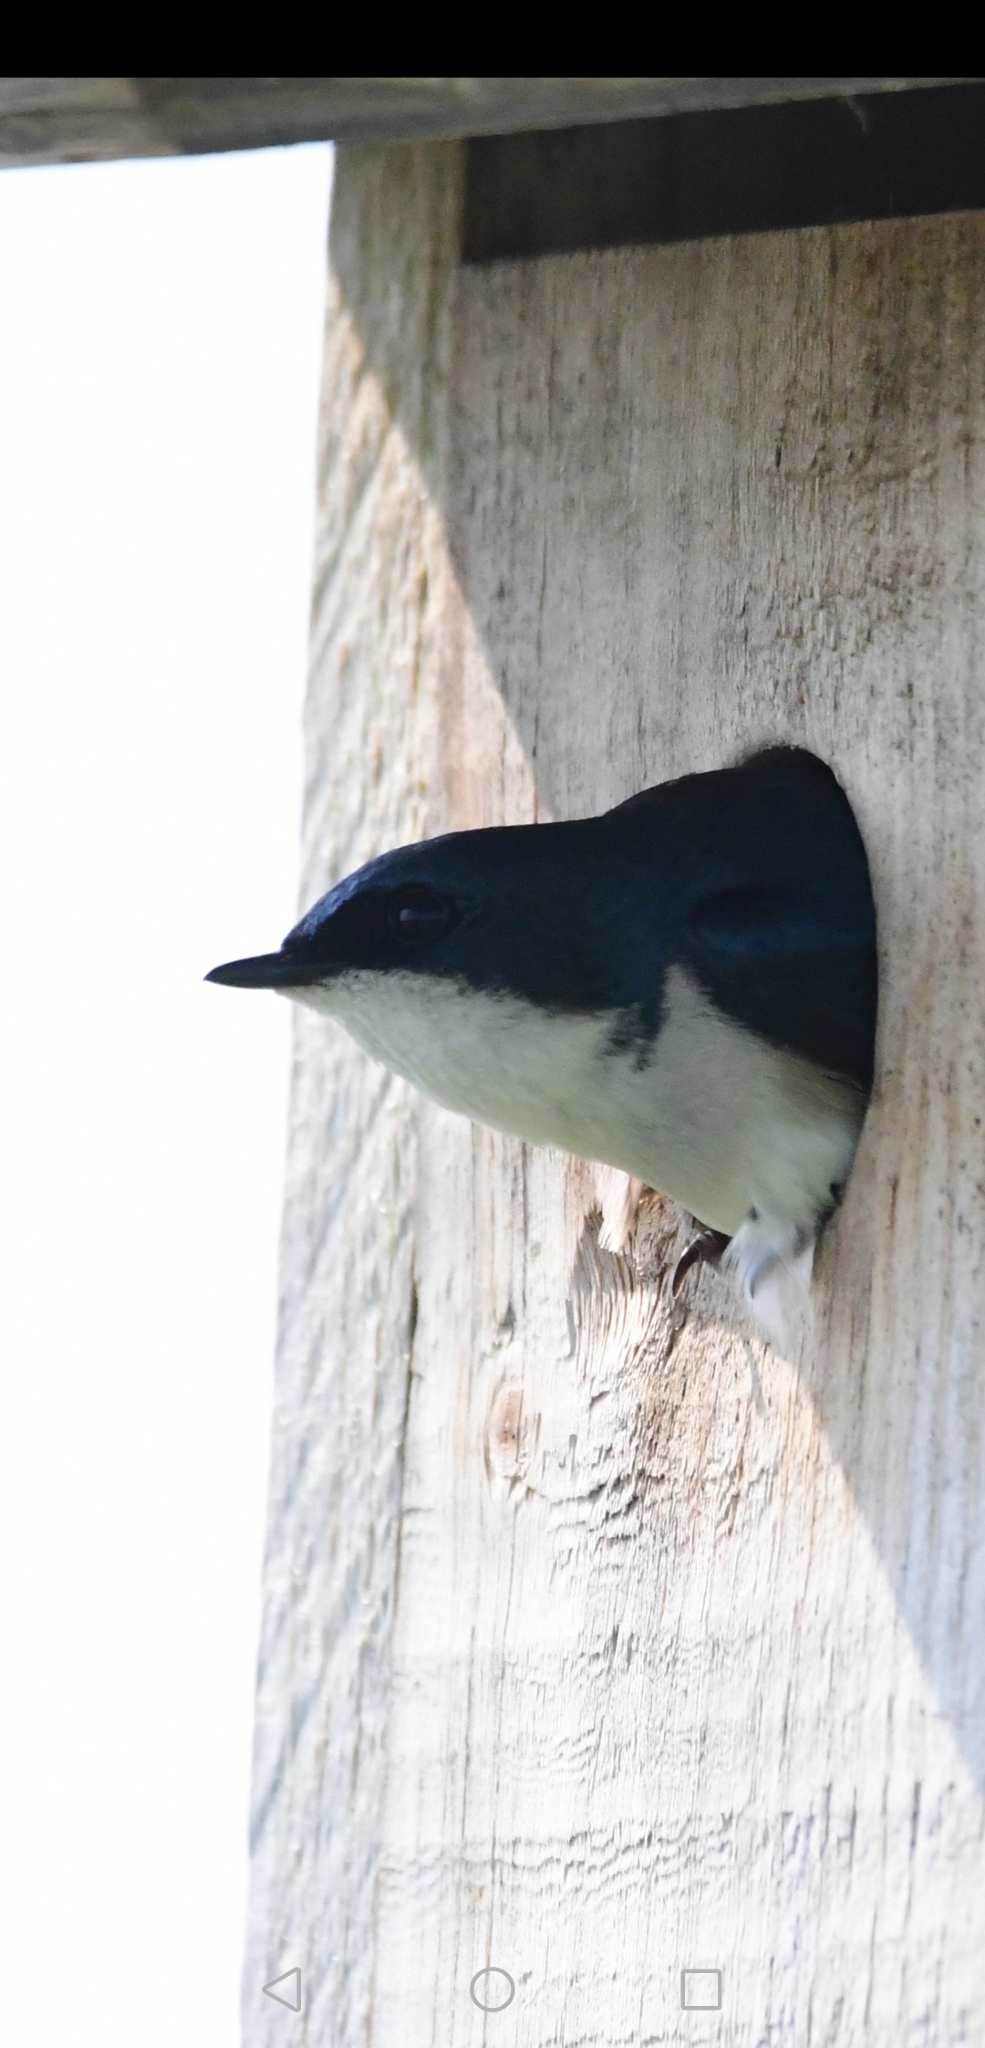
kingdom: Animalia
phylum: Chordata
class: Aves
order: Passeriformes
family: Hirundinidae
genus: Tachycineta
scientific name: Tachycineta bicolor
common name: Tree swallow
